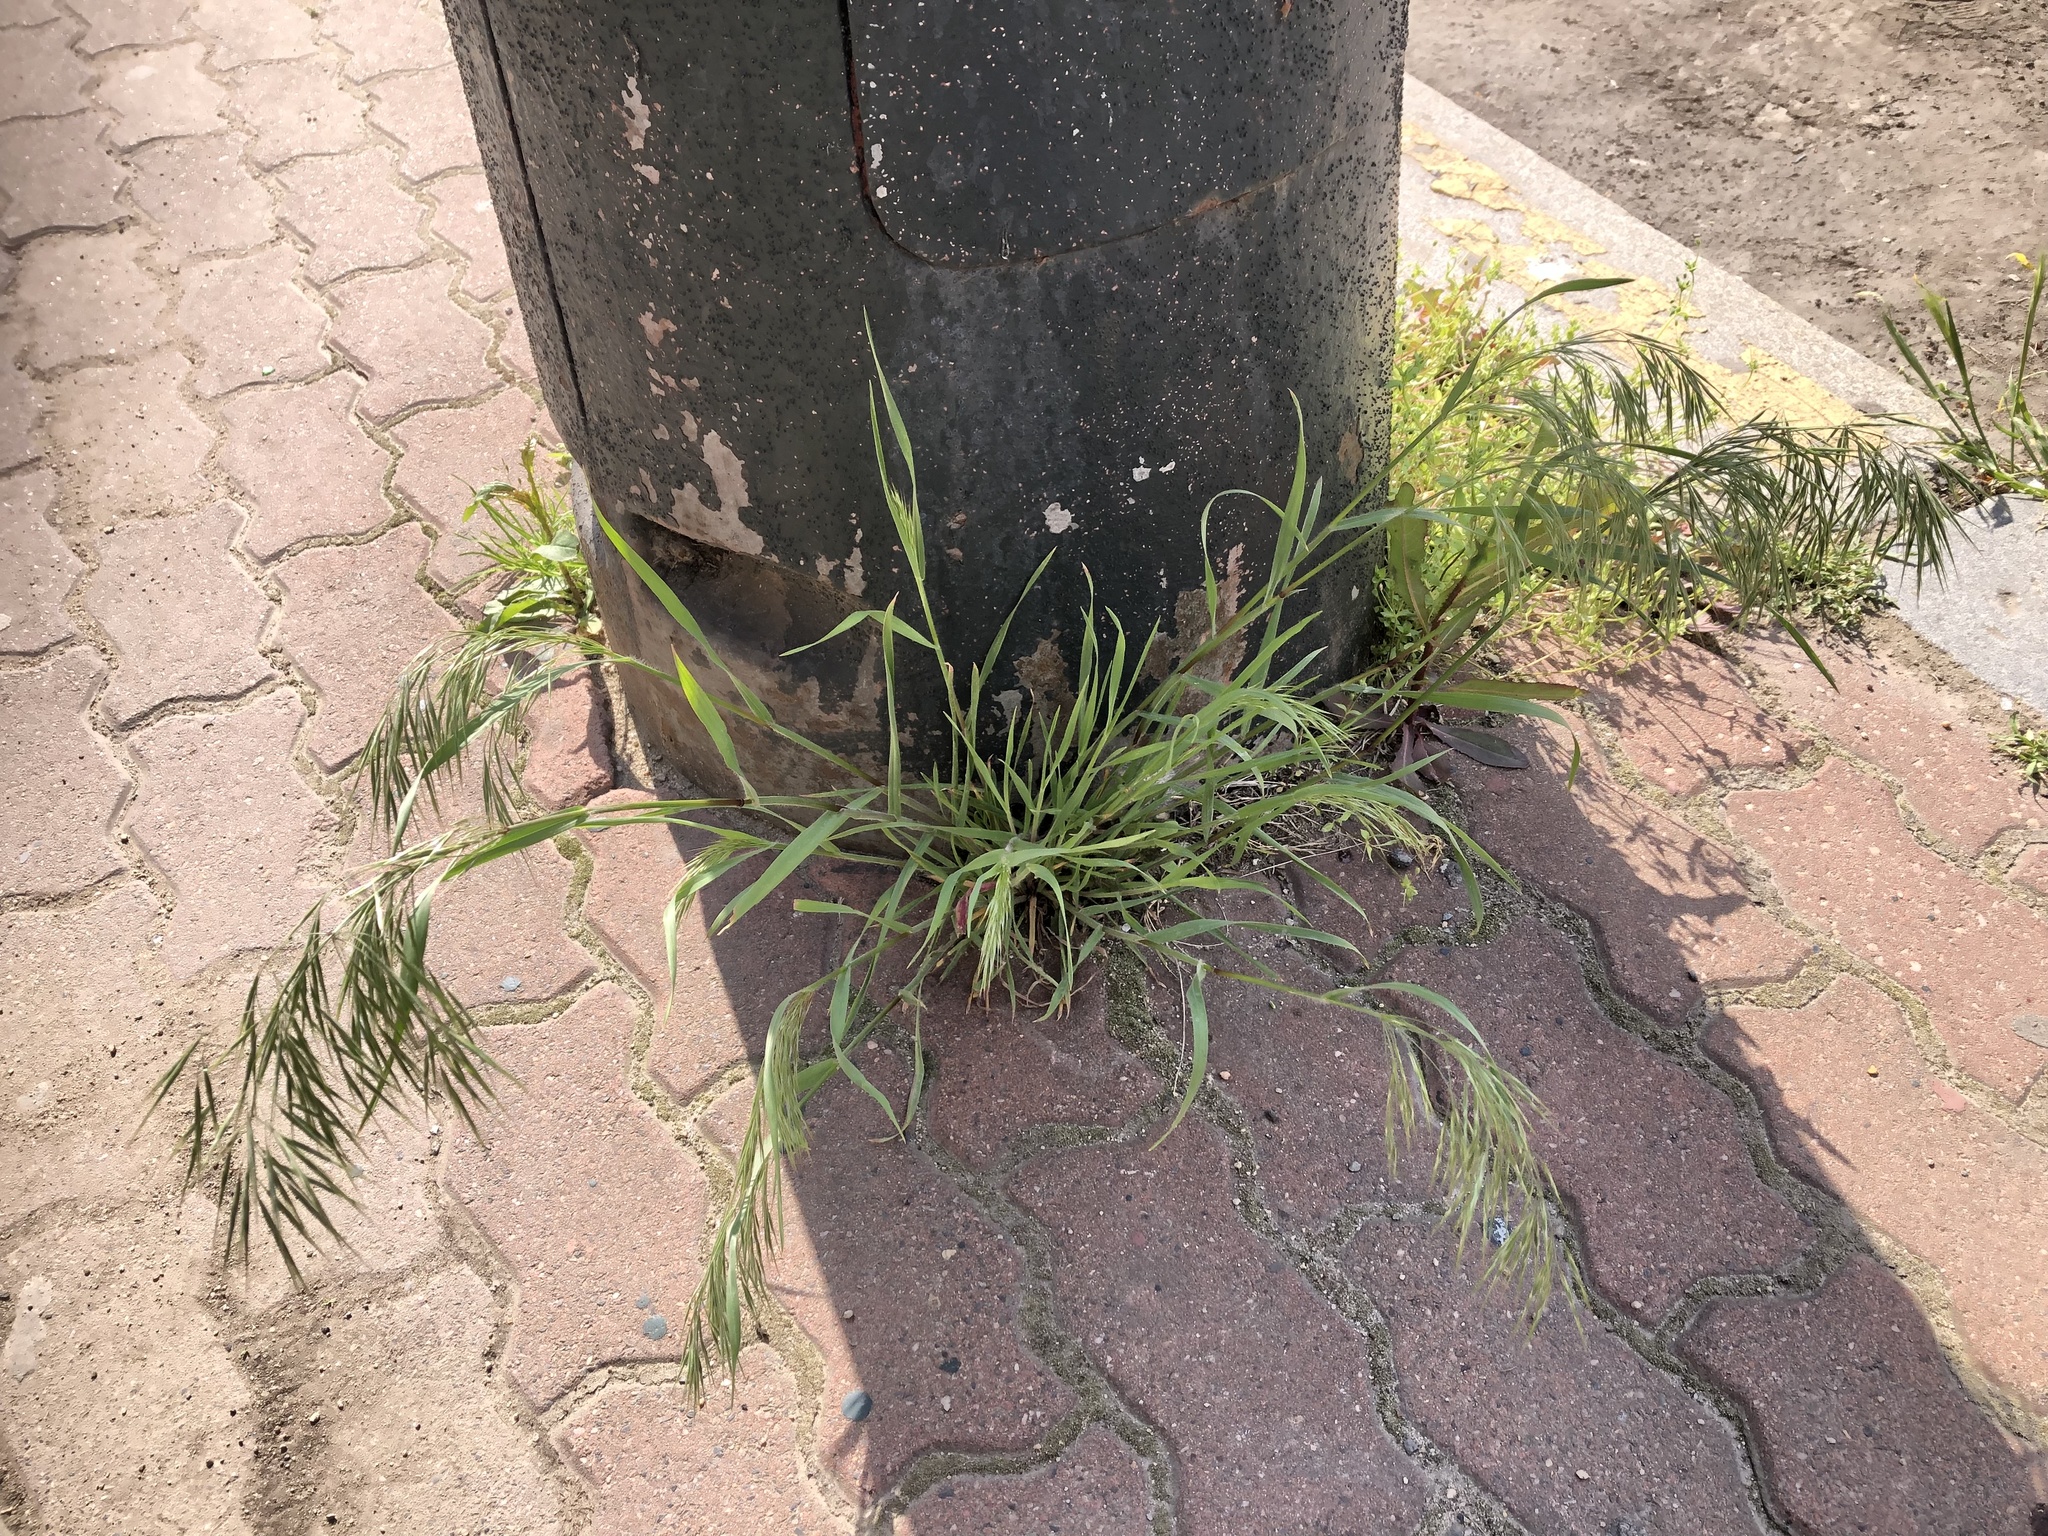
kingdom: Plantae
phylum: Tracheophyta
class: Liliopsida
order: Poales
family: Poaceae
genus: Bromus
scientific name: Bromus tectorum
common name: Cheatgrass
